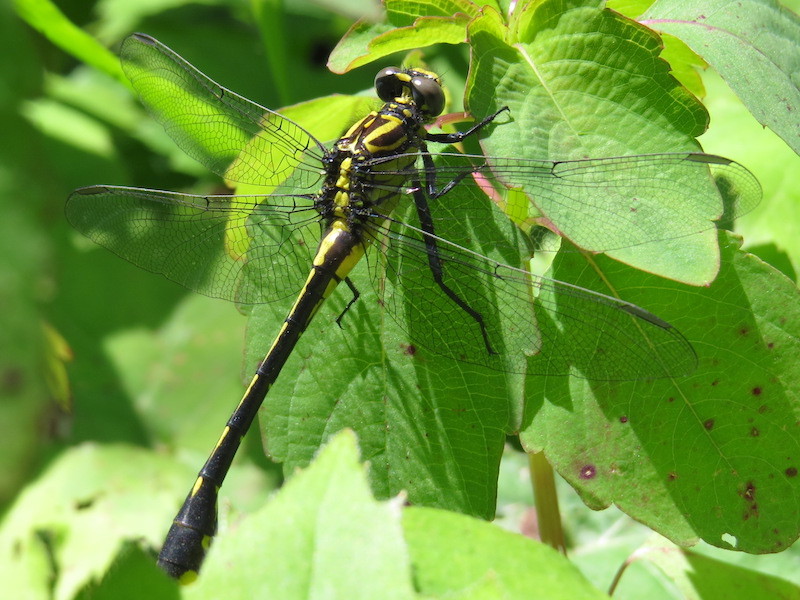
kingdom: Animalia
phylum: Arthropoda
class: Insecta
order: Odonata
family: Gomphidae
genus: Gomphurus
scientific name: Gomphurus vastus
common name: Cobra clubtail
